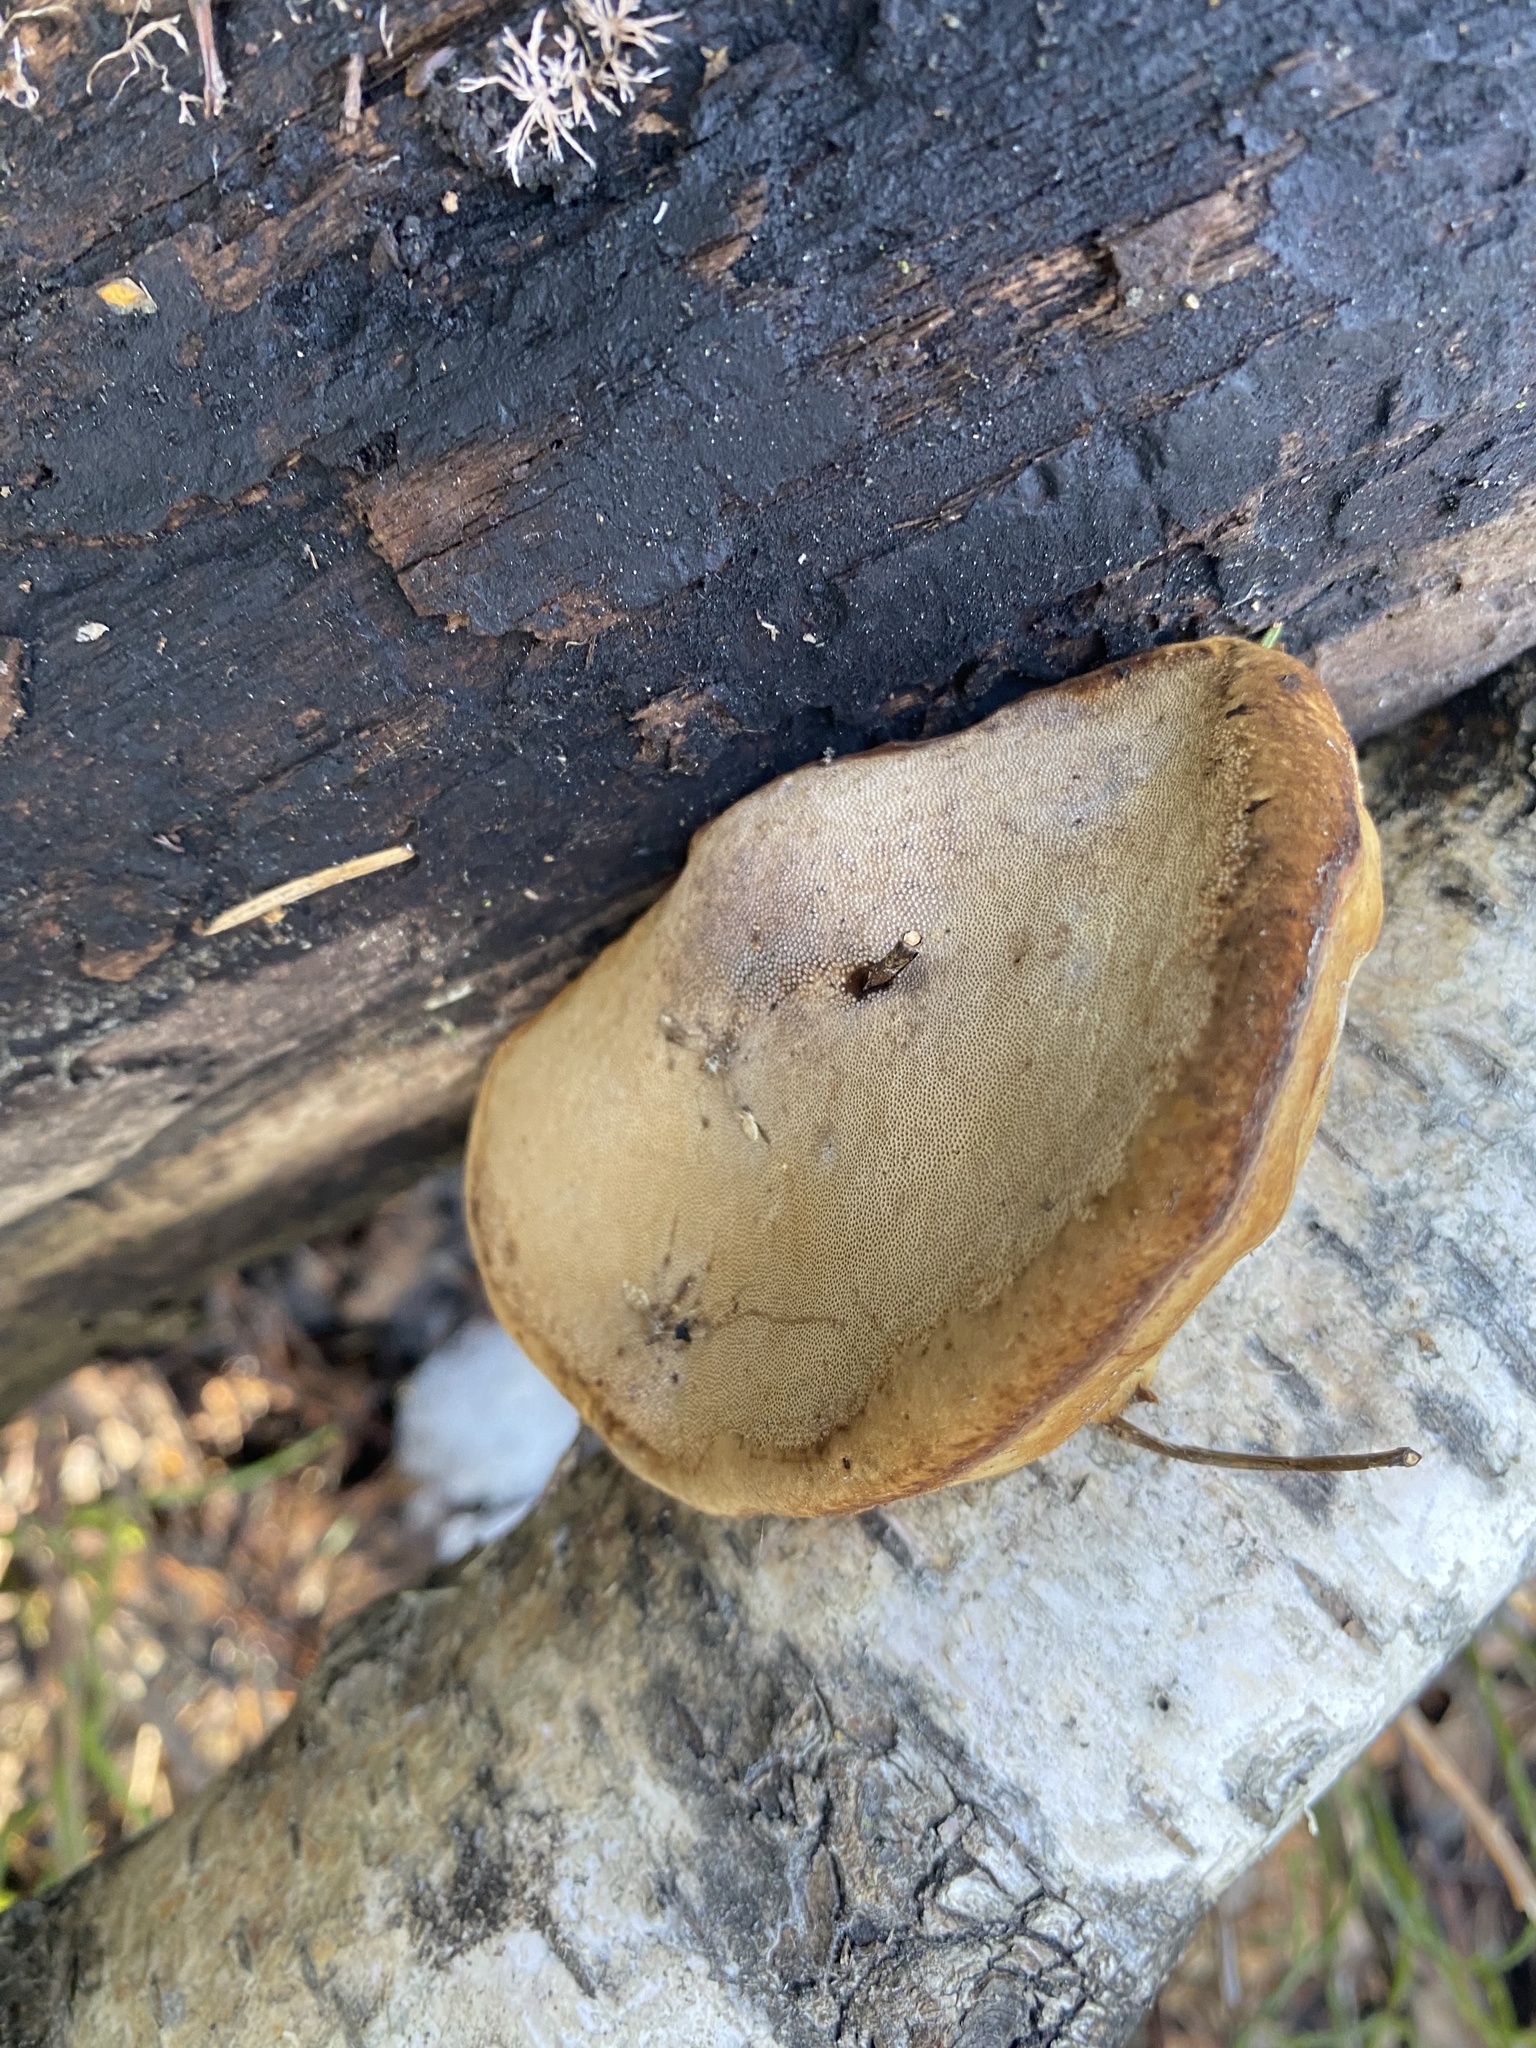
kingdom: Fungi
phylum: Basidiomycota
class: Agaricomycetes
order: Polyporales
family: Polyporaceae
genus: Fomes
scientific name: Fomes fomentarius
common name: Hoof fungus
